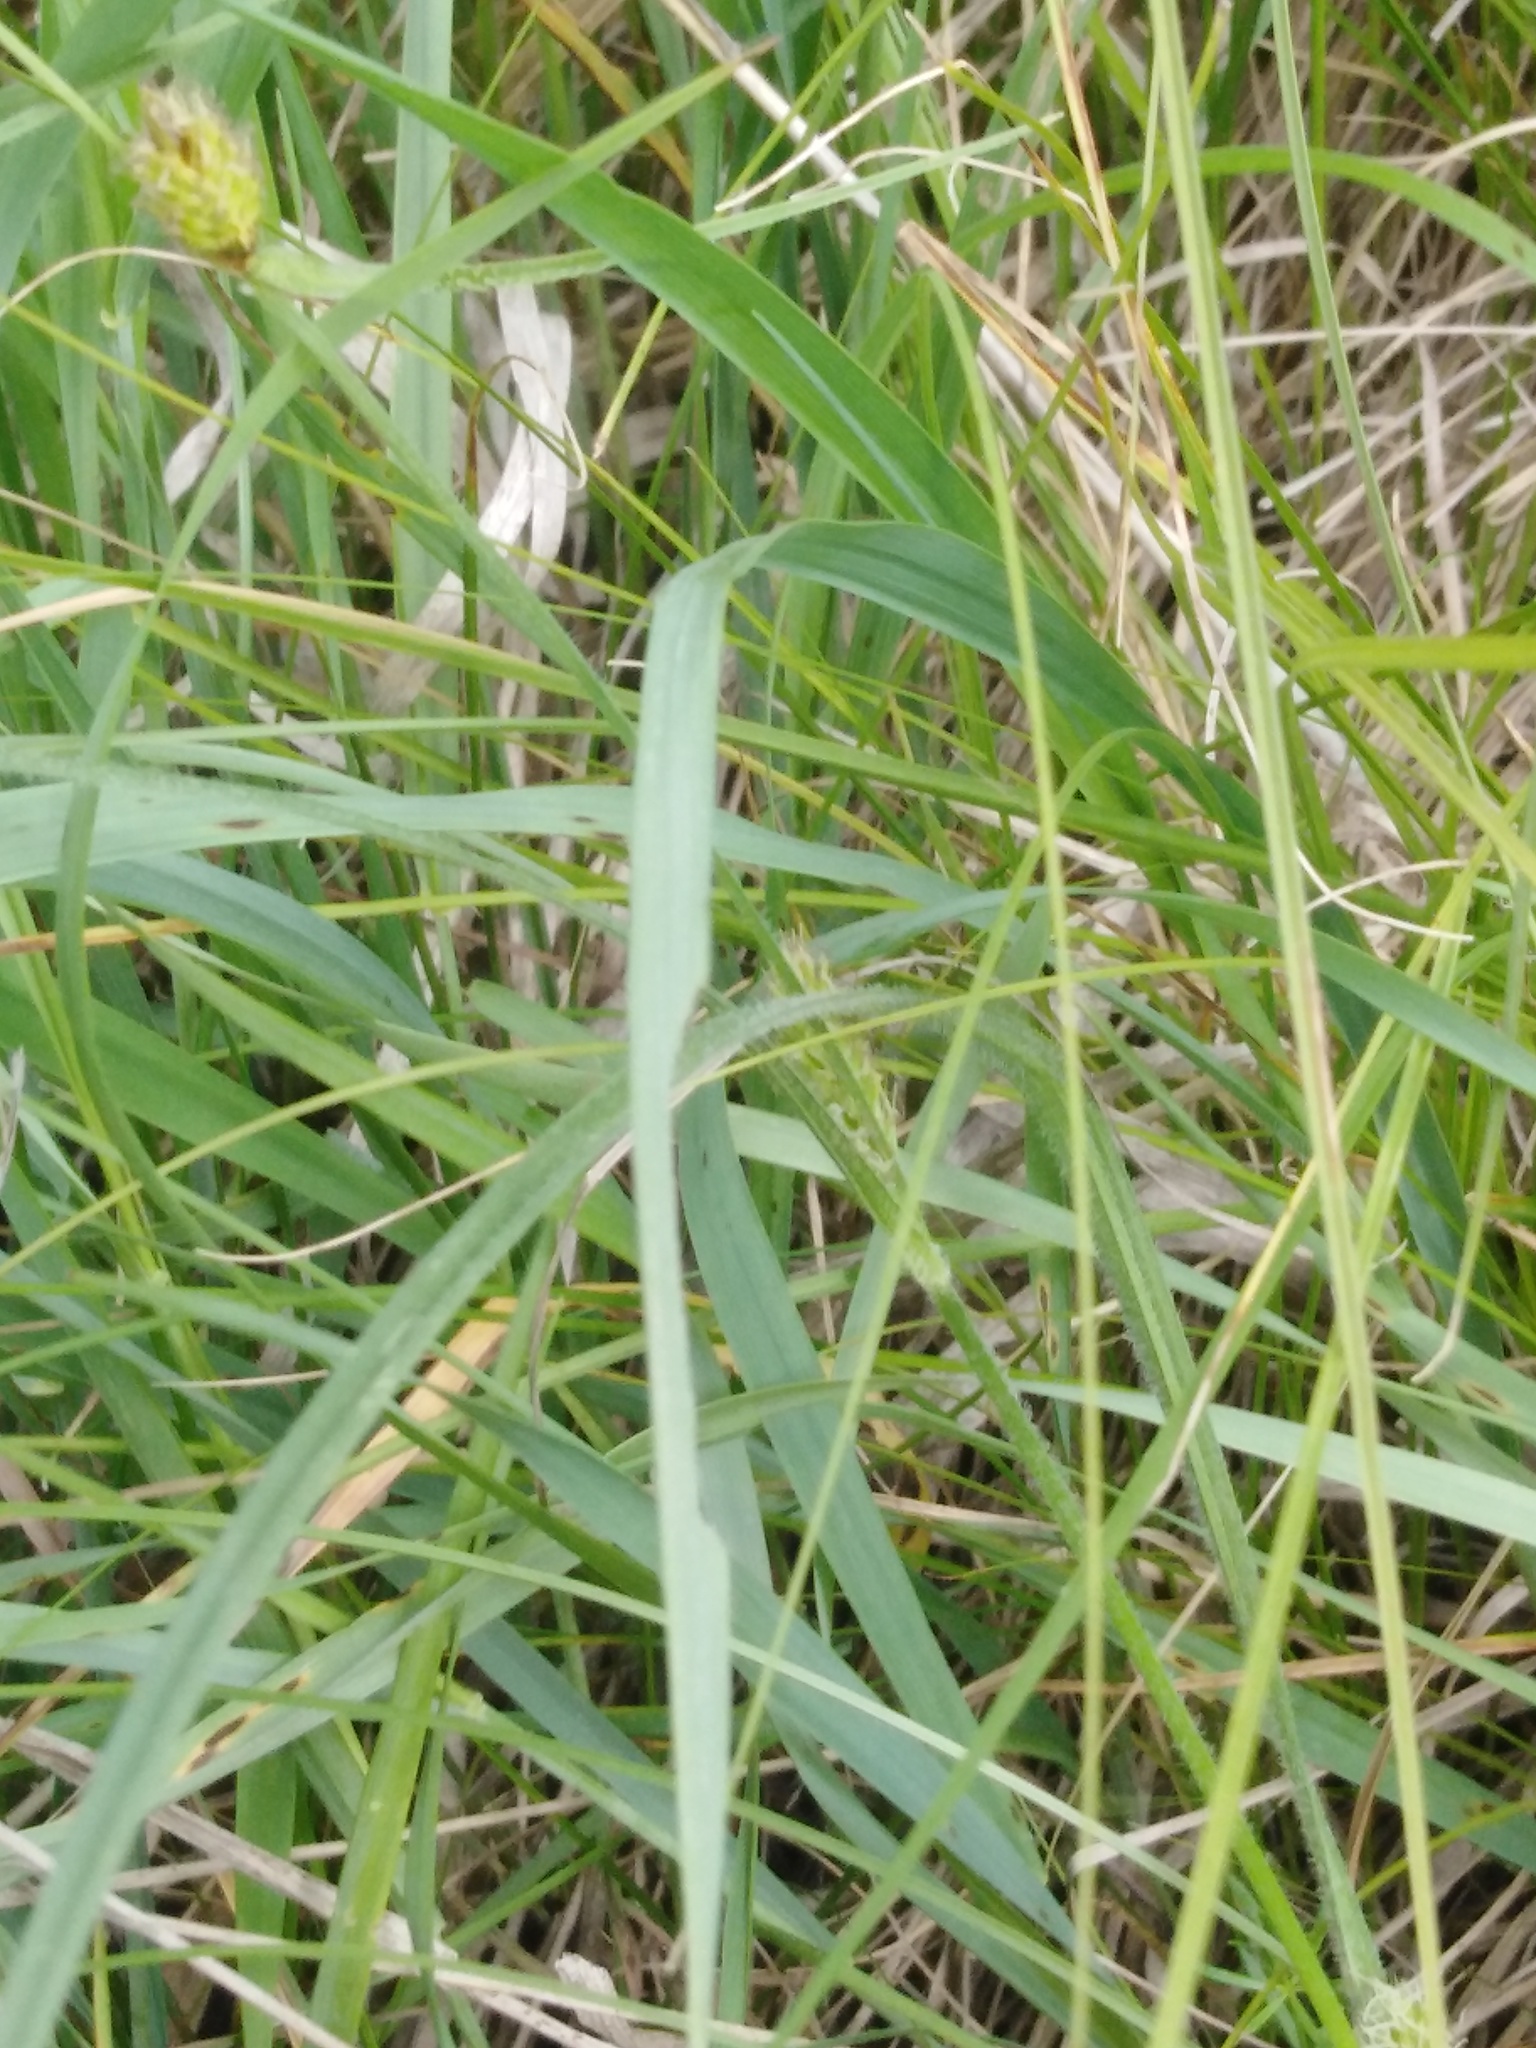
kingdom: Plantae
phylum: Tracheophyta
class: Liliopsida
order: Poales
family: Cyperaceae
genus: Carex
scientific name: Carex hirta
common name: Hairy sedge
